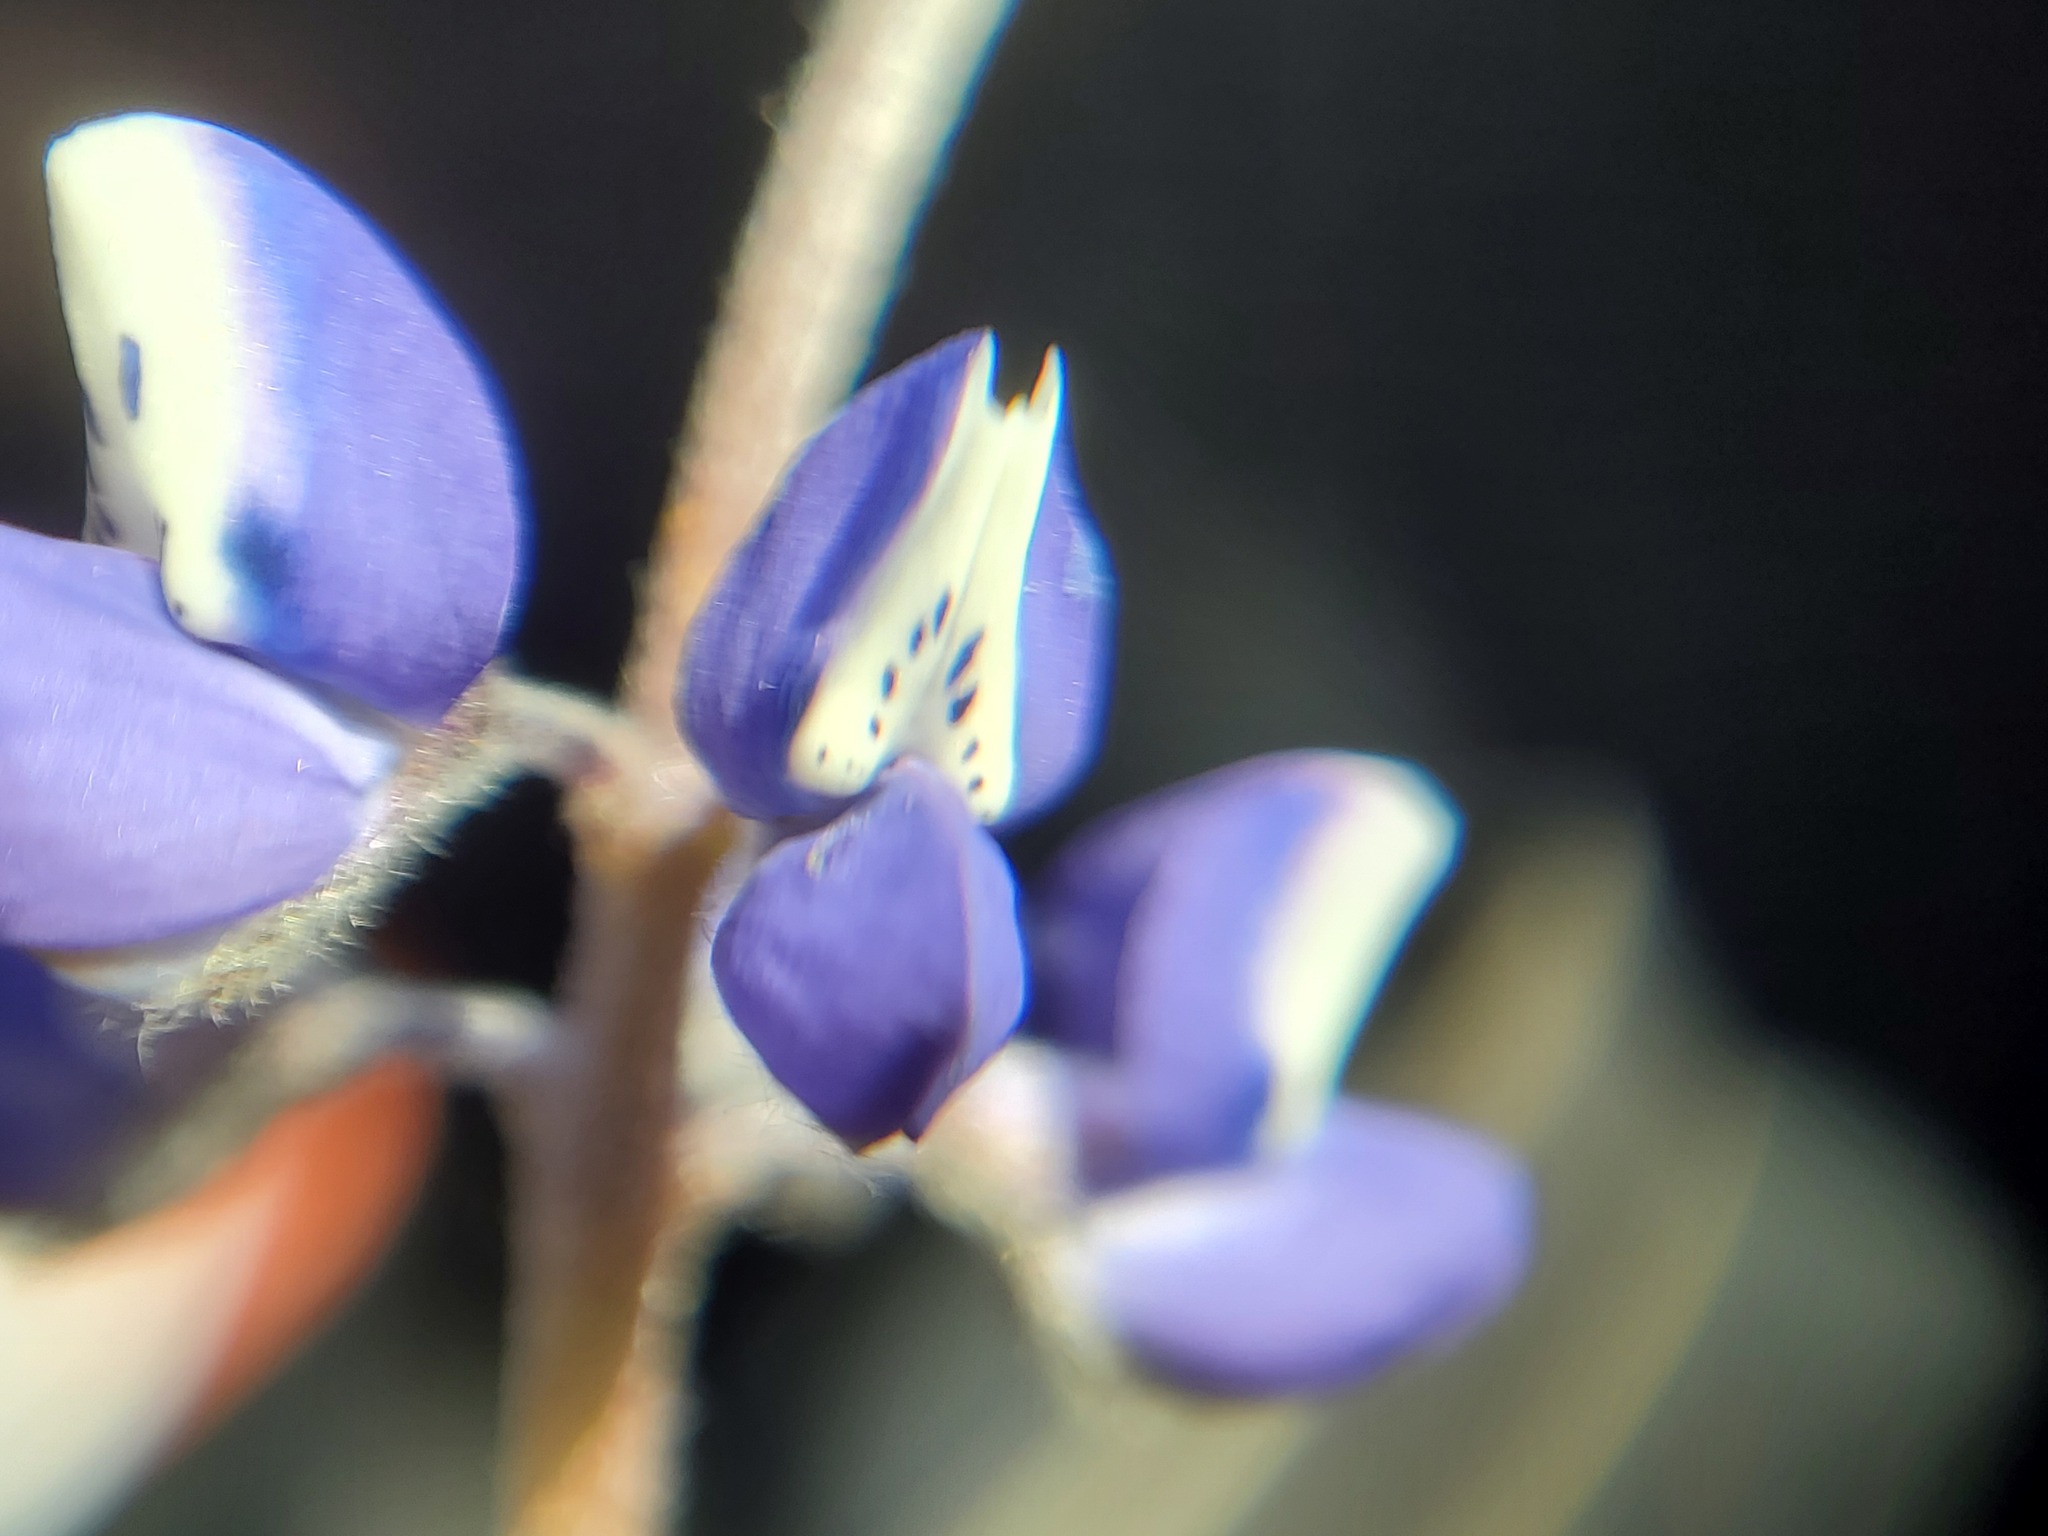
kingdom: Plantae
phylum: Tracheophyta
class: Magnoliopsida
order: Fabales
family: Fabaceae
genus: Lupinus
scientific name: Lupinus nanus
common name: Orean blue lupin
